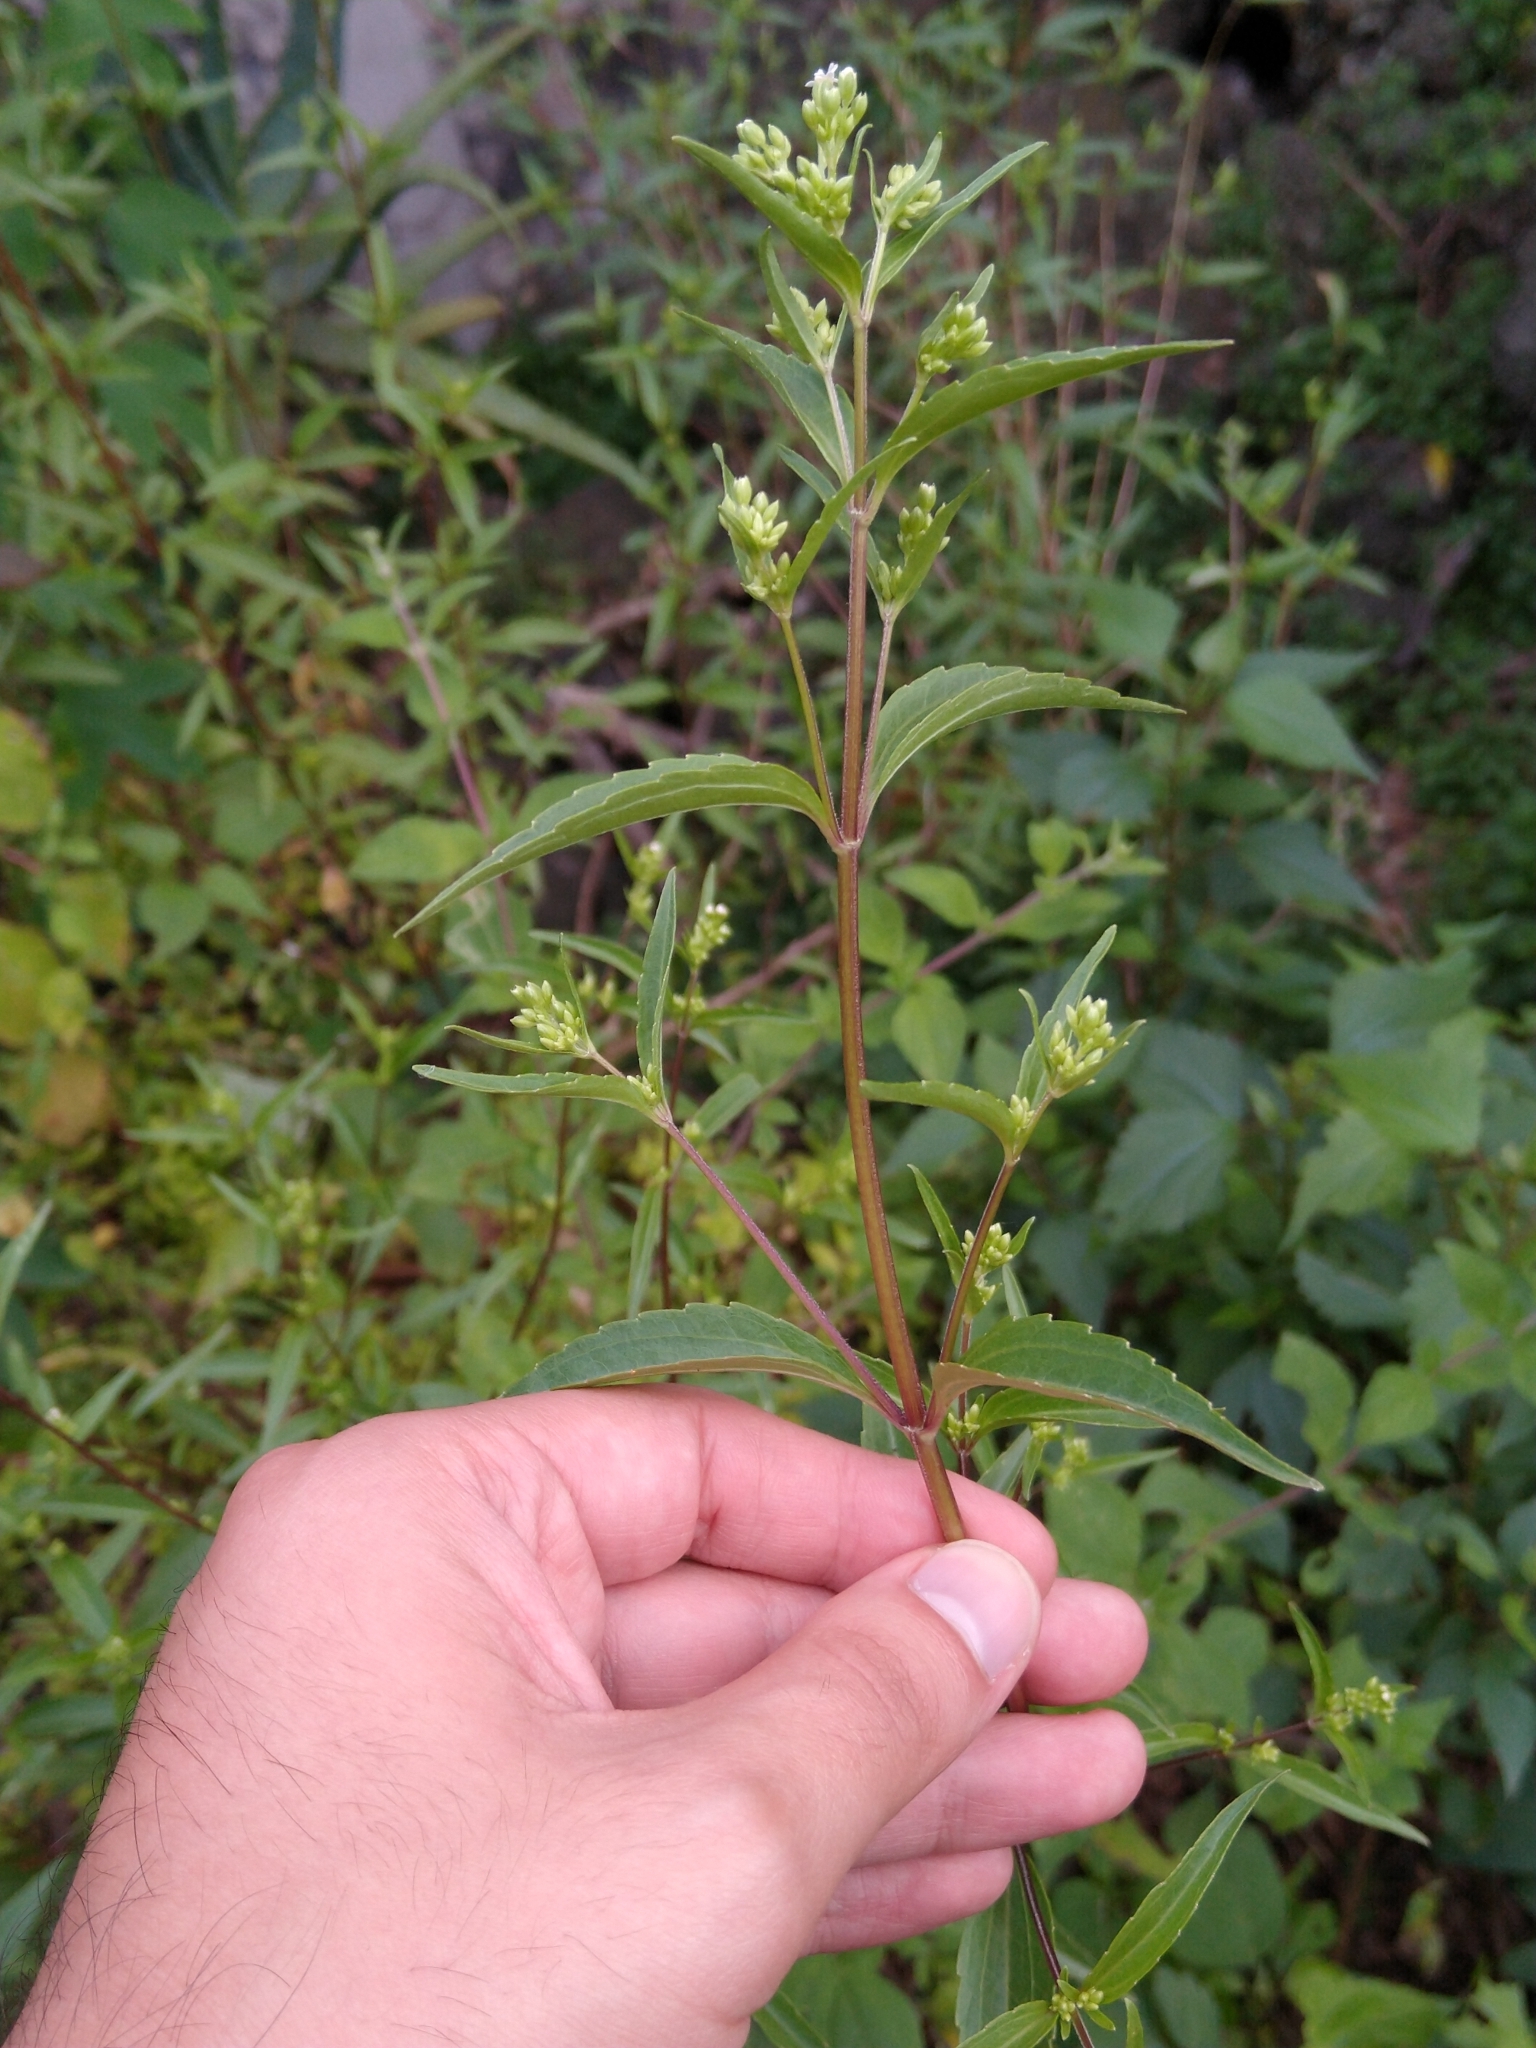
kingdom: Plantae
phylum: Tracheophyta
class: Magnoliopsida
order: Asterales
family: Asteraceae
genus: Piqueria
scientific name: Piqueria trinervia
